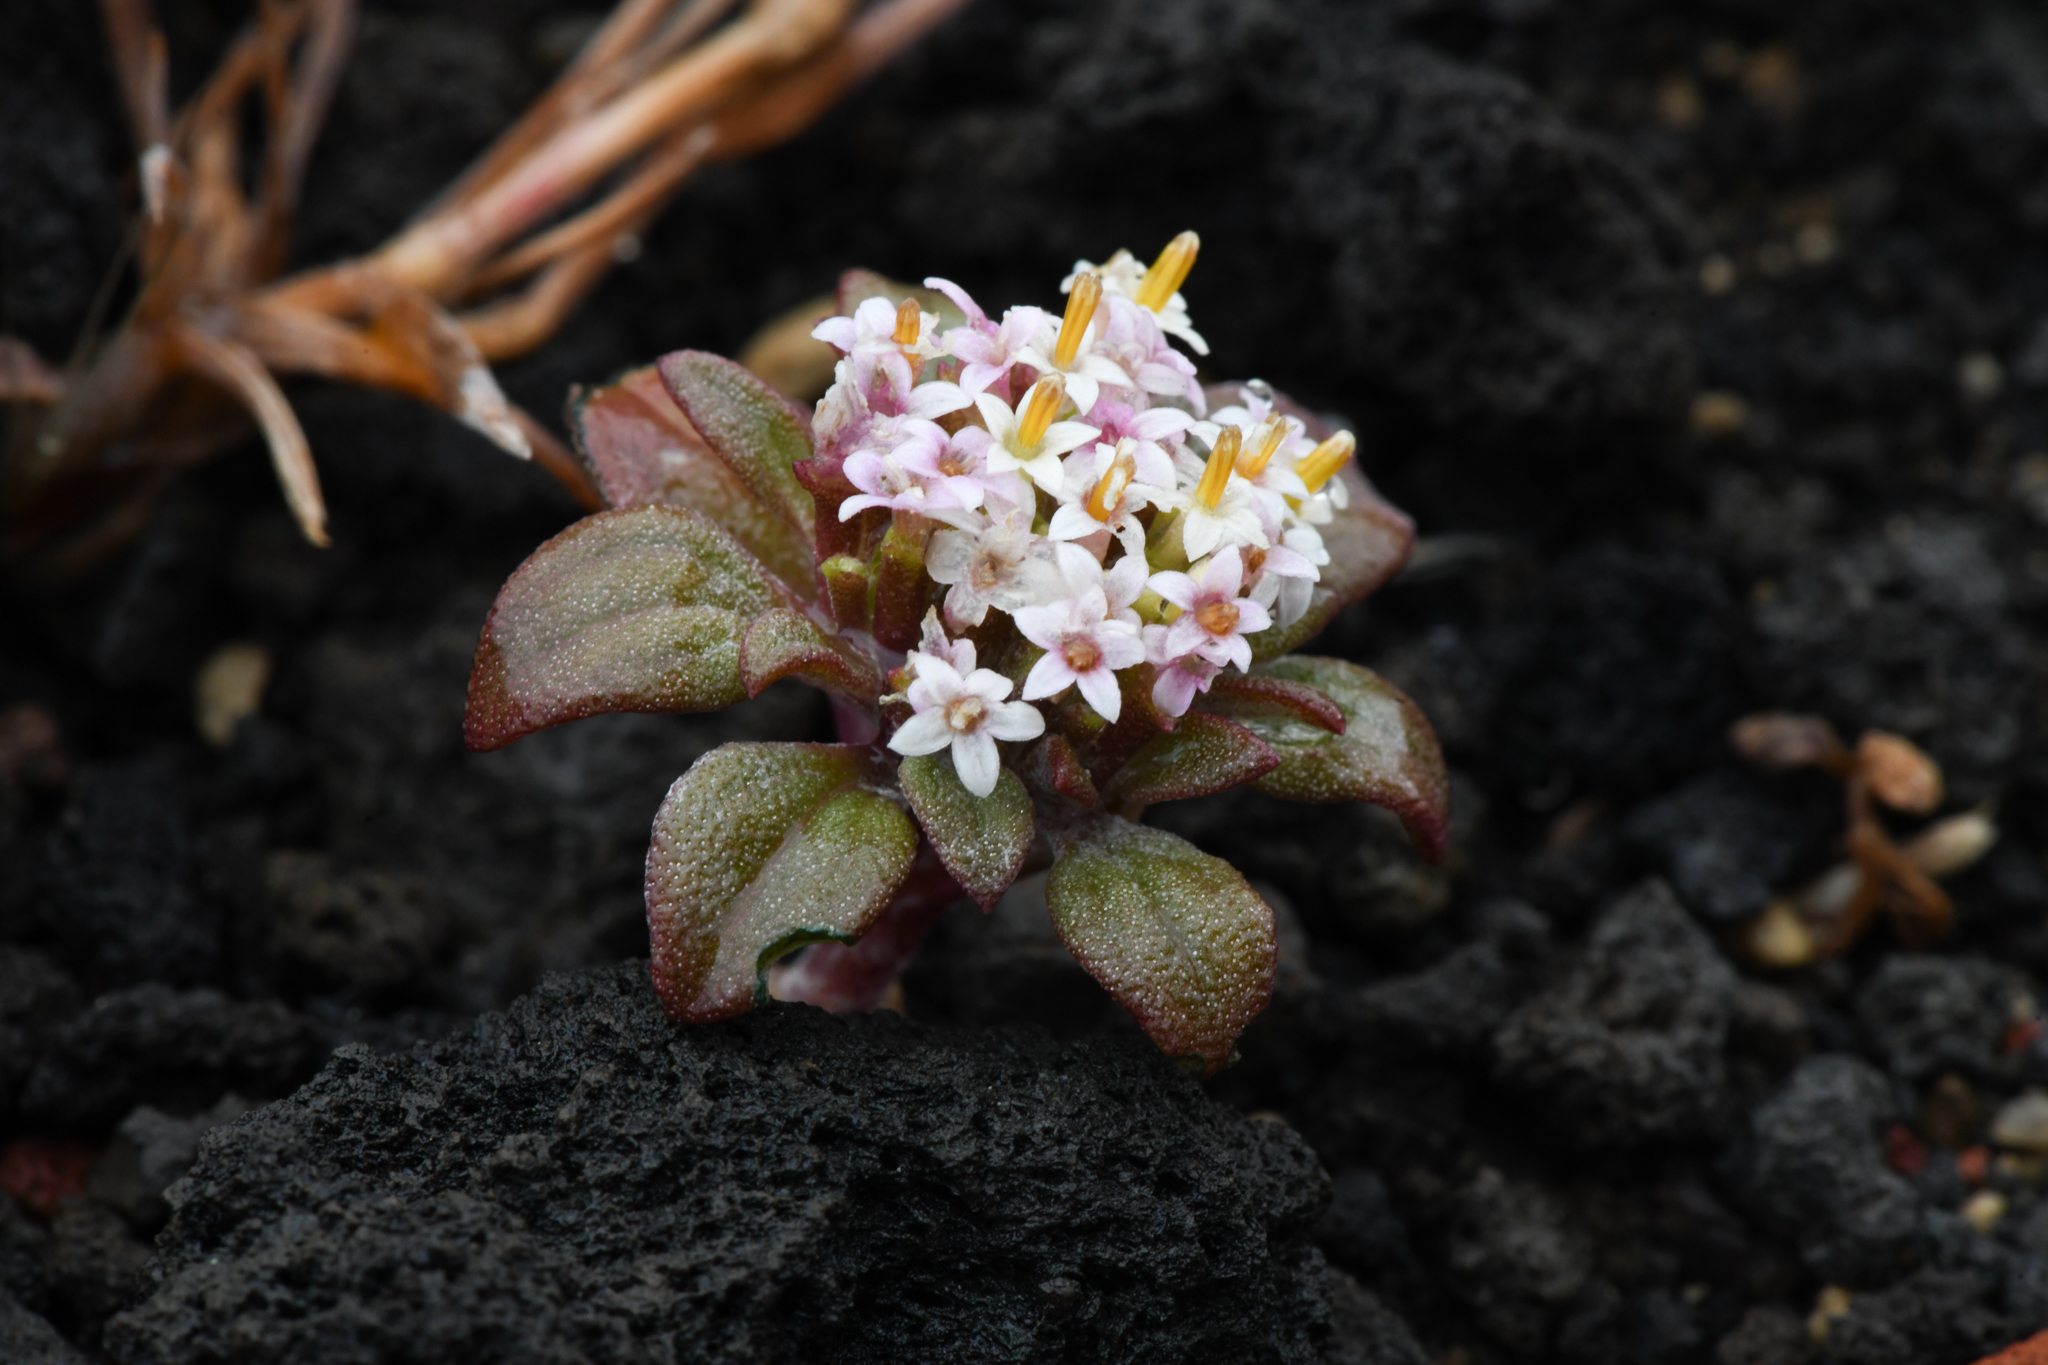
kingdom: Plantae
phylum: Tracheophyta
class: Magnoliopsida
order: Asterales
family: Asteraceae
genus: Dimeresia
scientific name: Dimeresia howellii
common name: Doublet
